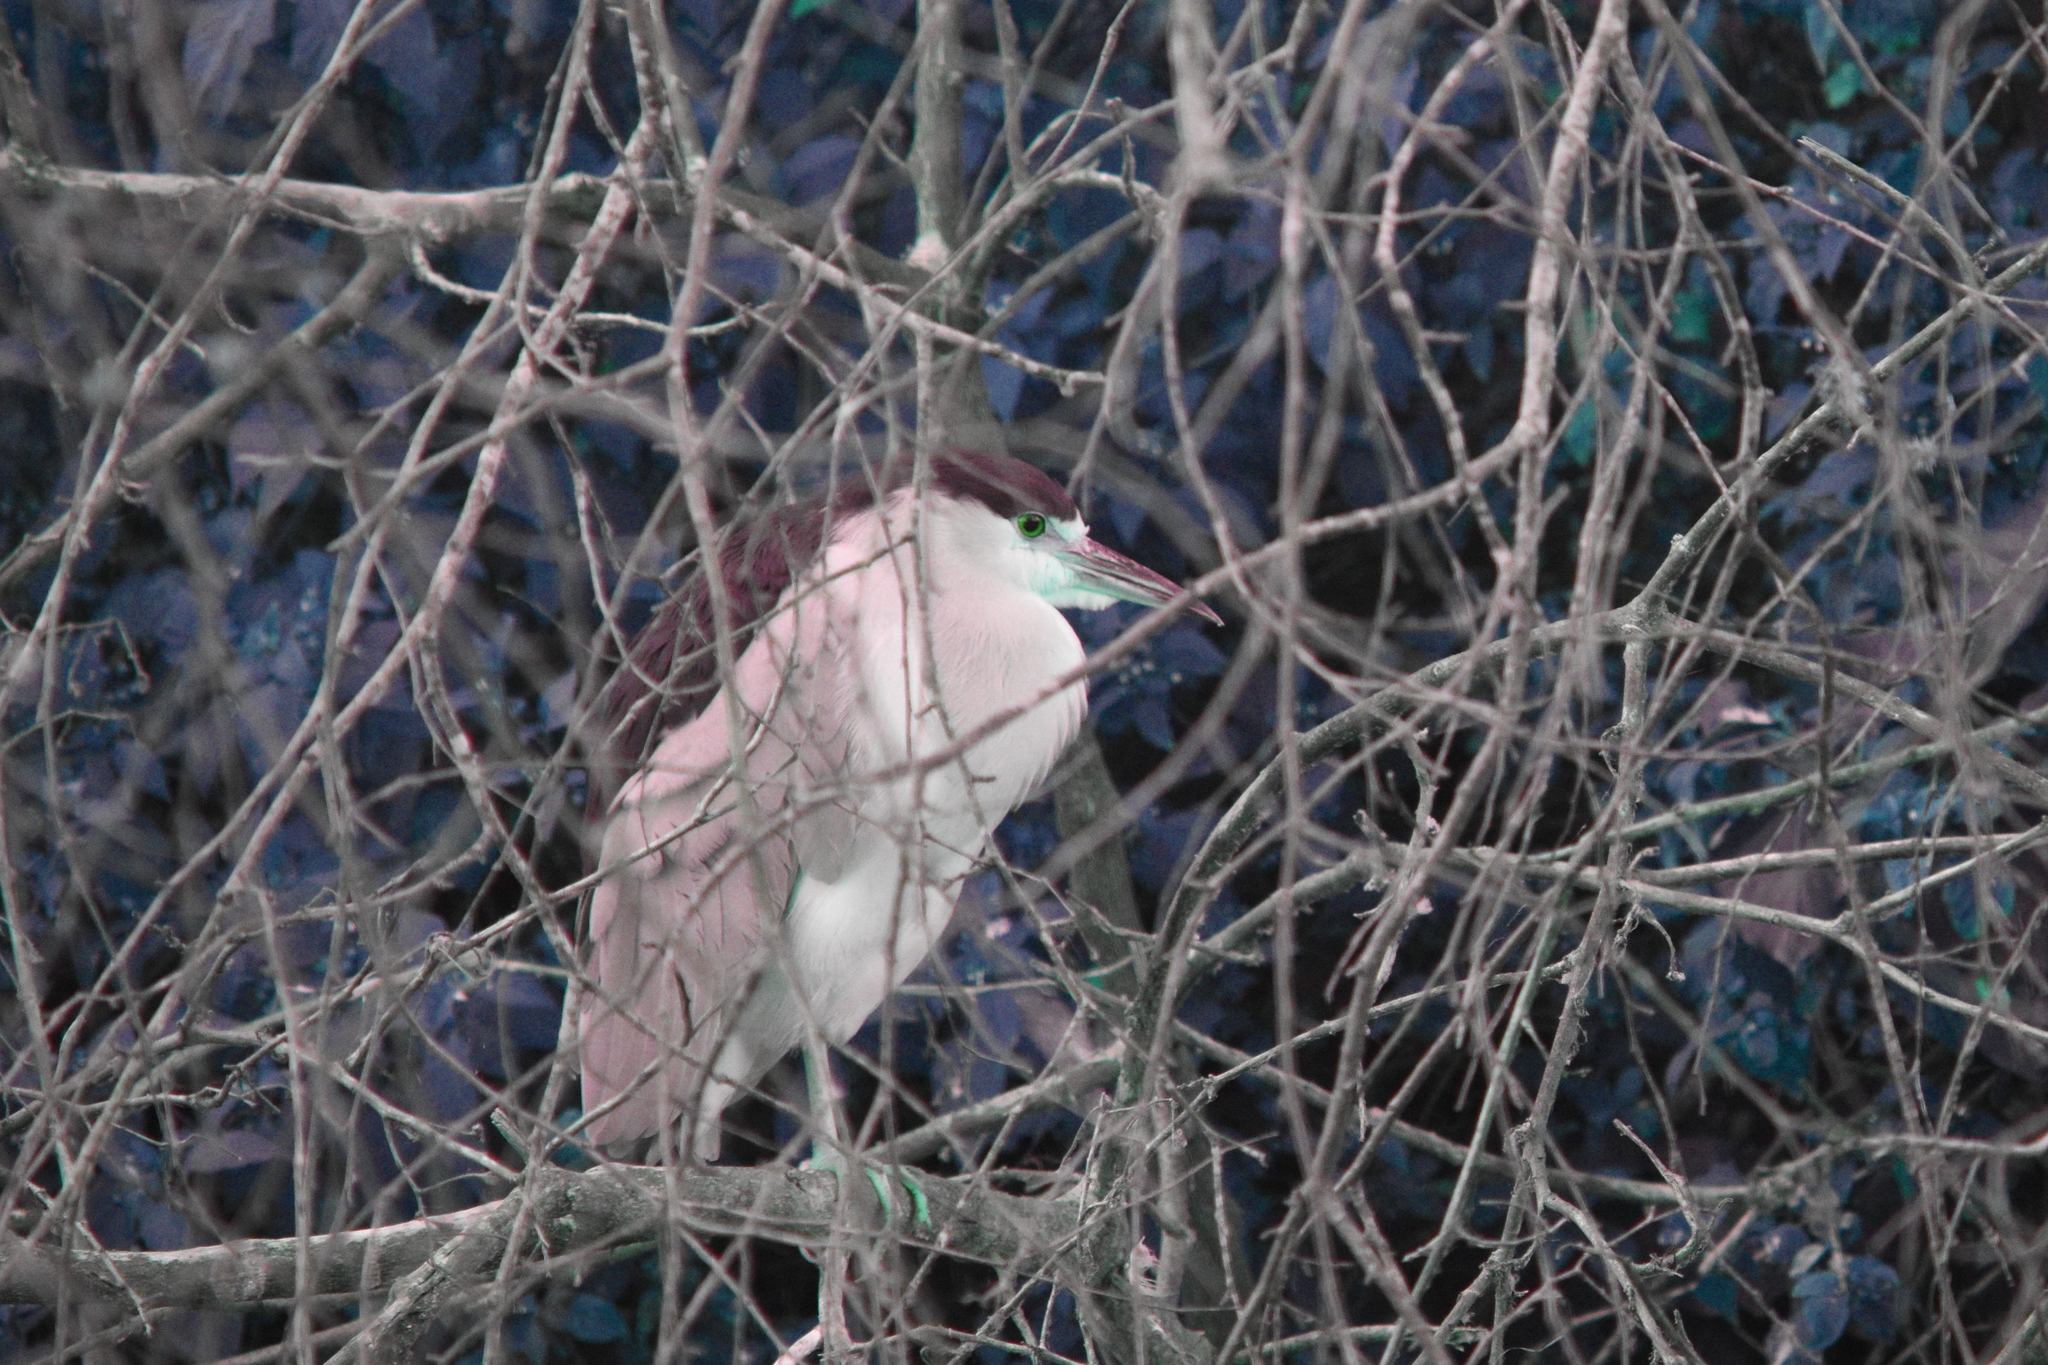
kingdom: Animalia
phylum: Chordata
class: Aves
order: Pelecaniformes
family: Ardeidae
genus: Nycticorax
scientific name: Nycticorax nycticorax
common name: Black-crowned night heron
